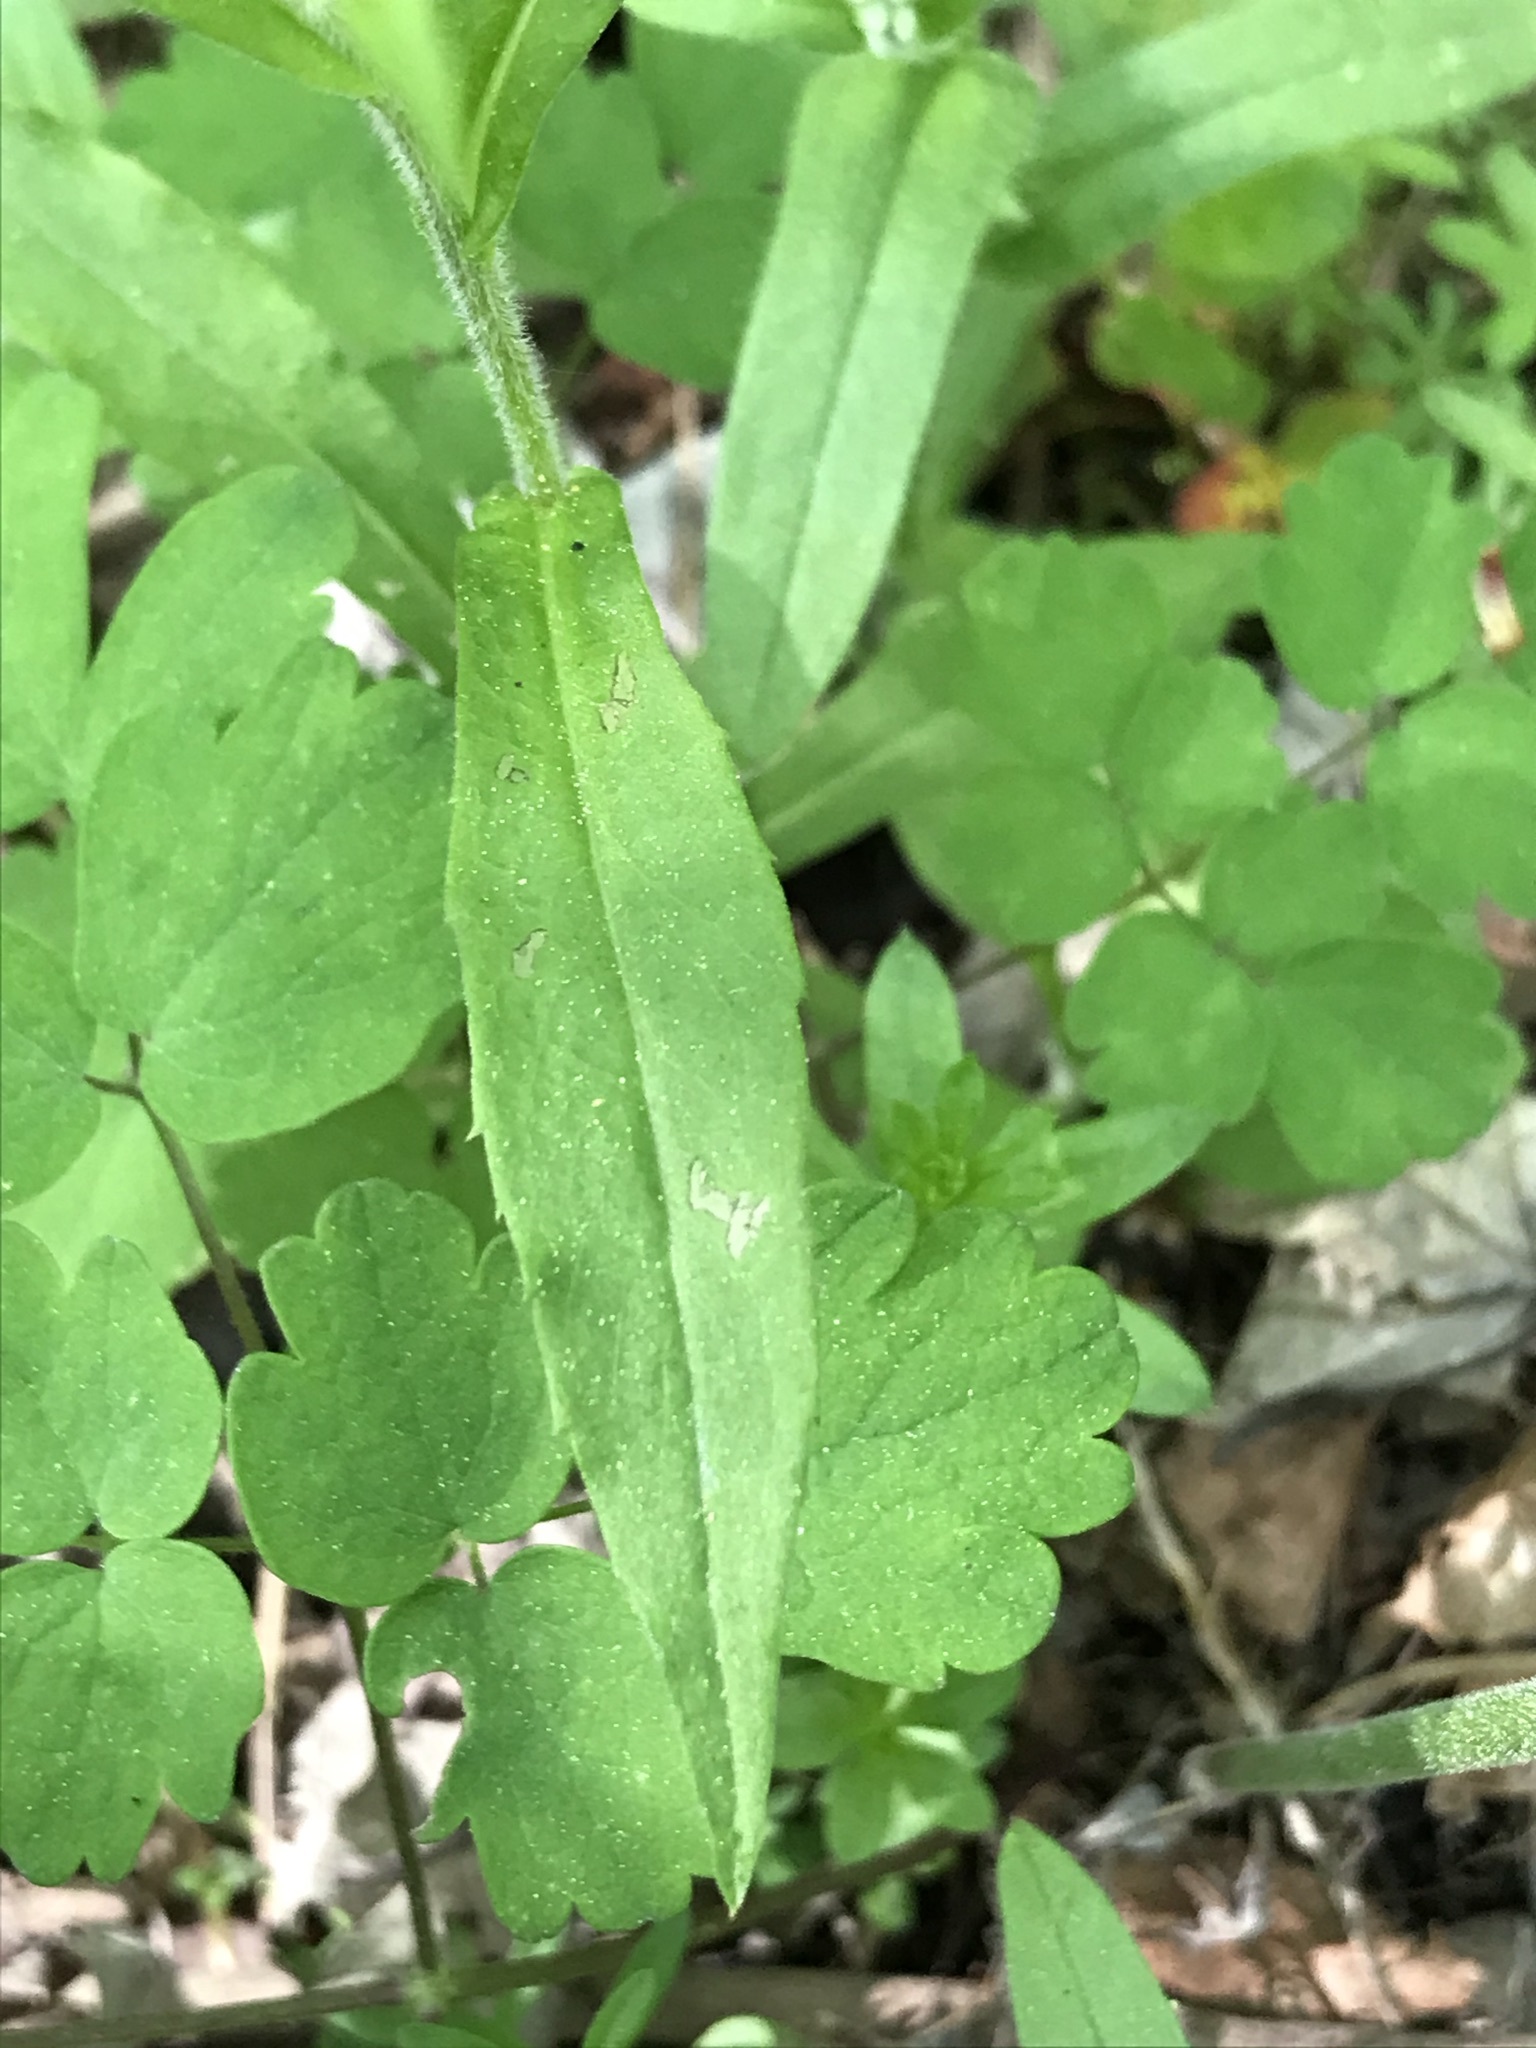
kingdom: Plantae
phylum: Tracheophyta
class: Magnoliopsida
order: Boraginales
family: Boraginaceae
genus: Myosotis
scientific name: Myosotis sylvatica
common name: Wood forget-me-not
